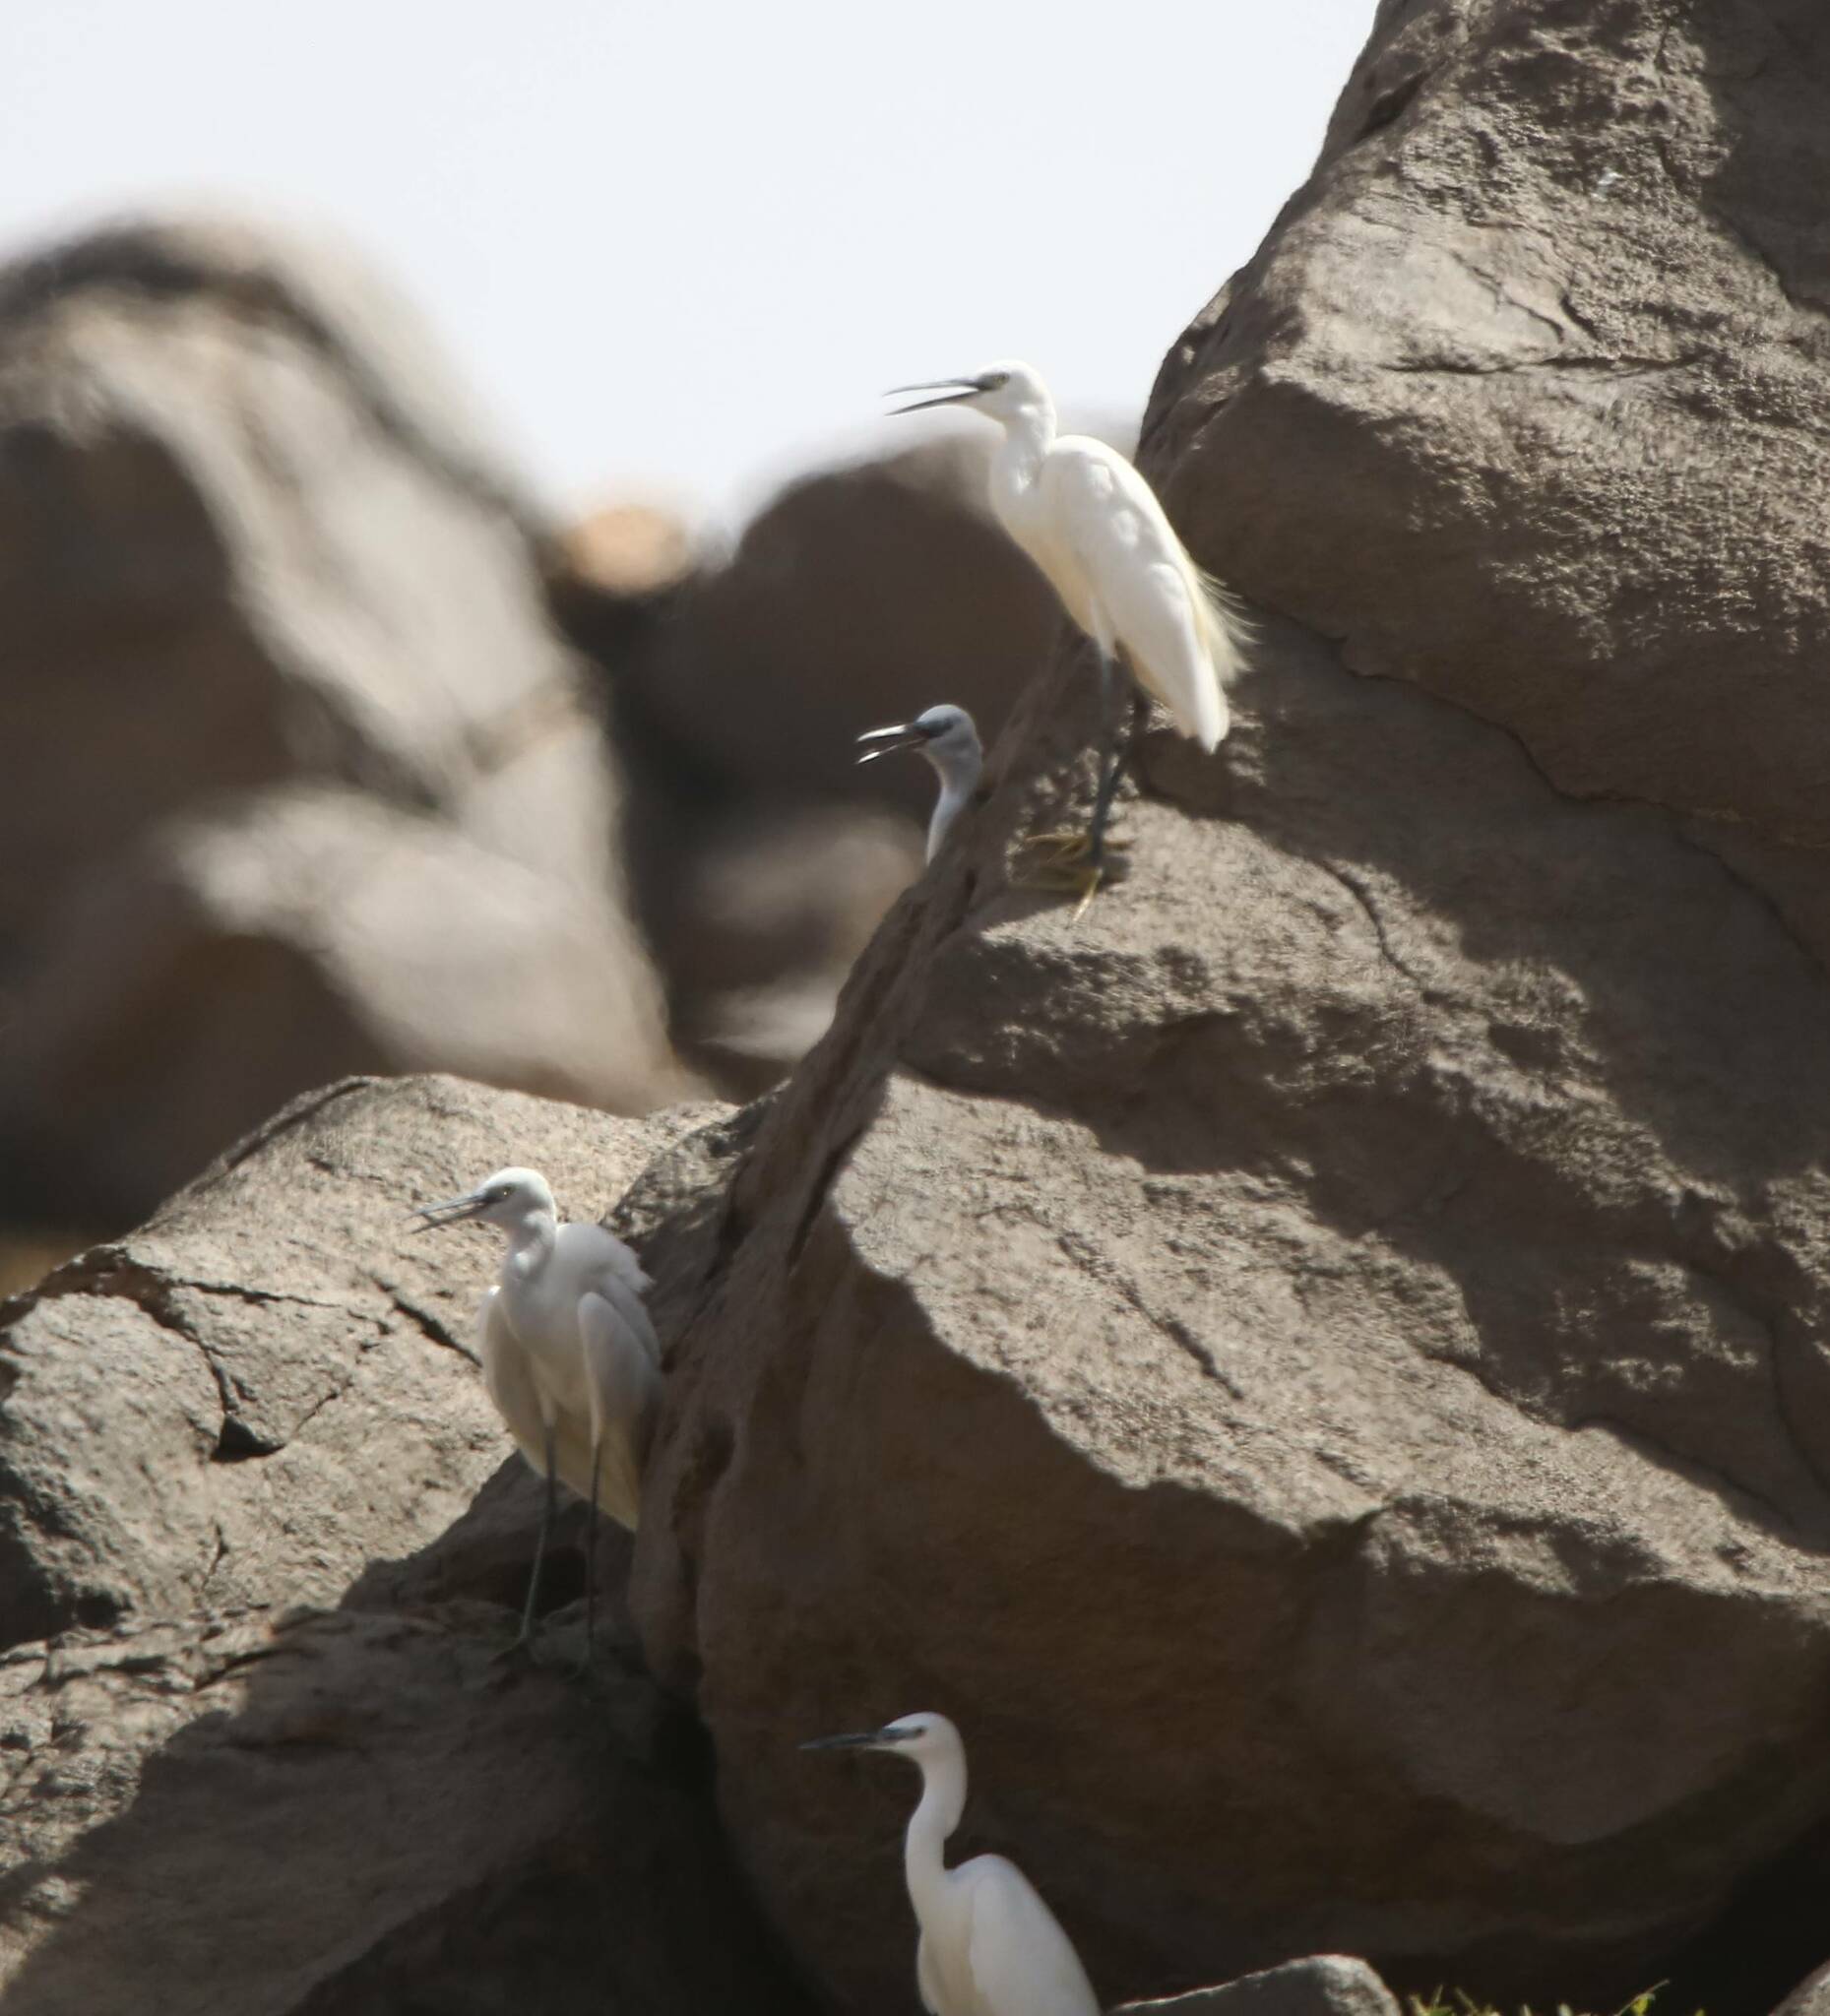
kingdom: Animalia
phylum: Chordata
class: Aves
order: Pelecaniformes
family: Ardeidae
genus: Egretta
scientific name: Egretta garzetta
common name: Little egret
